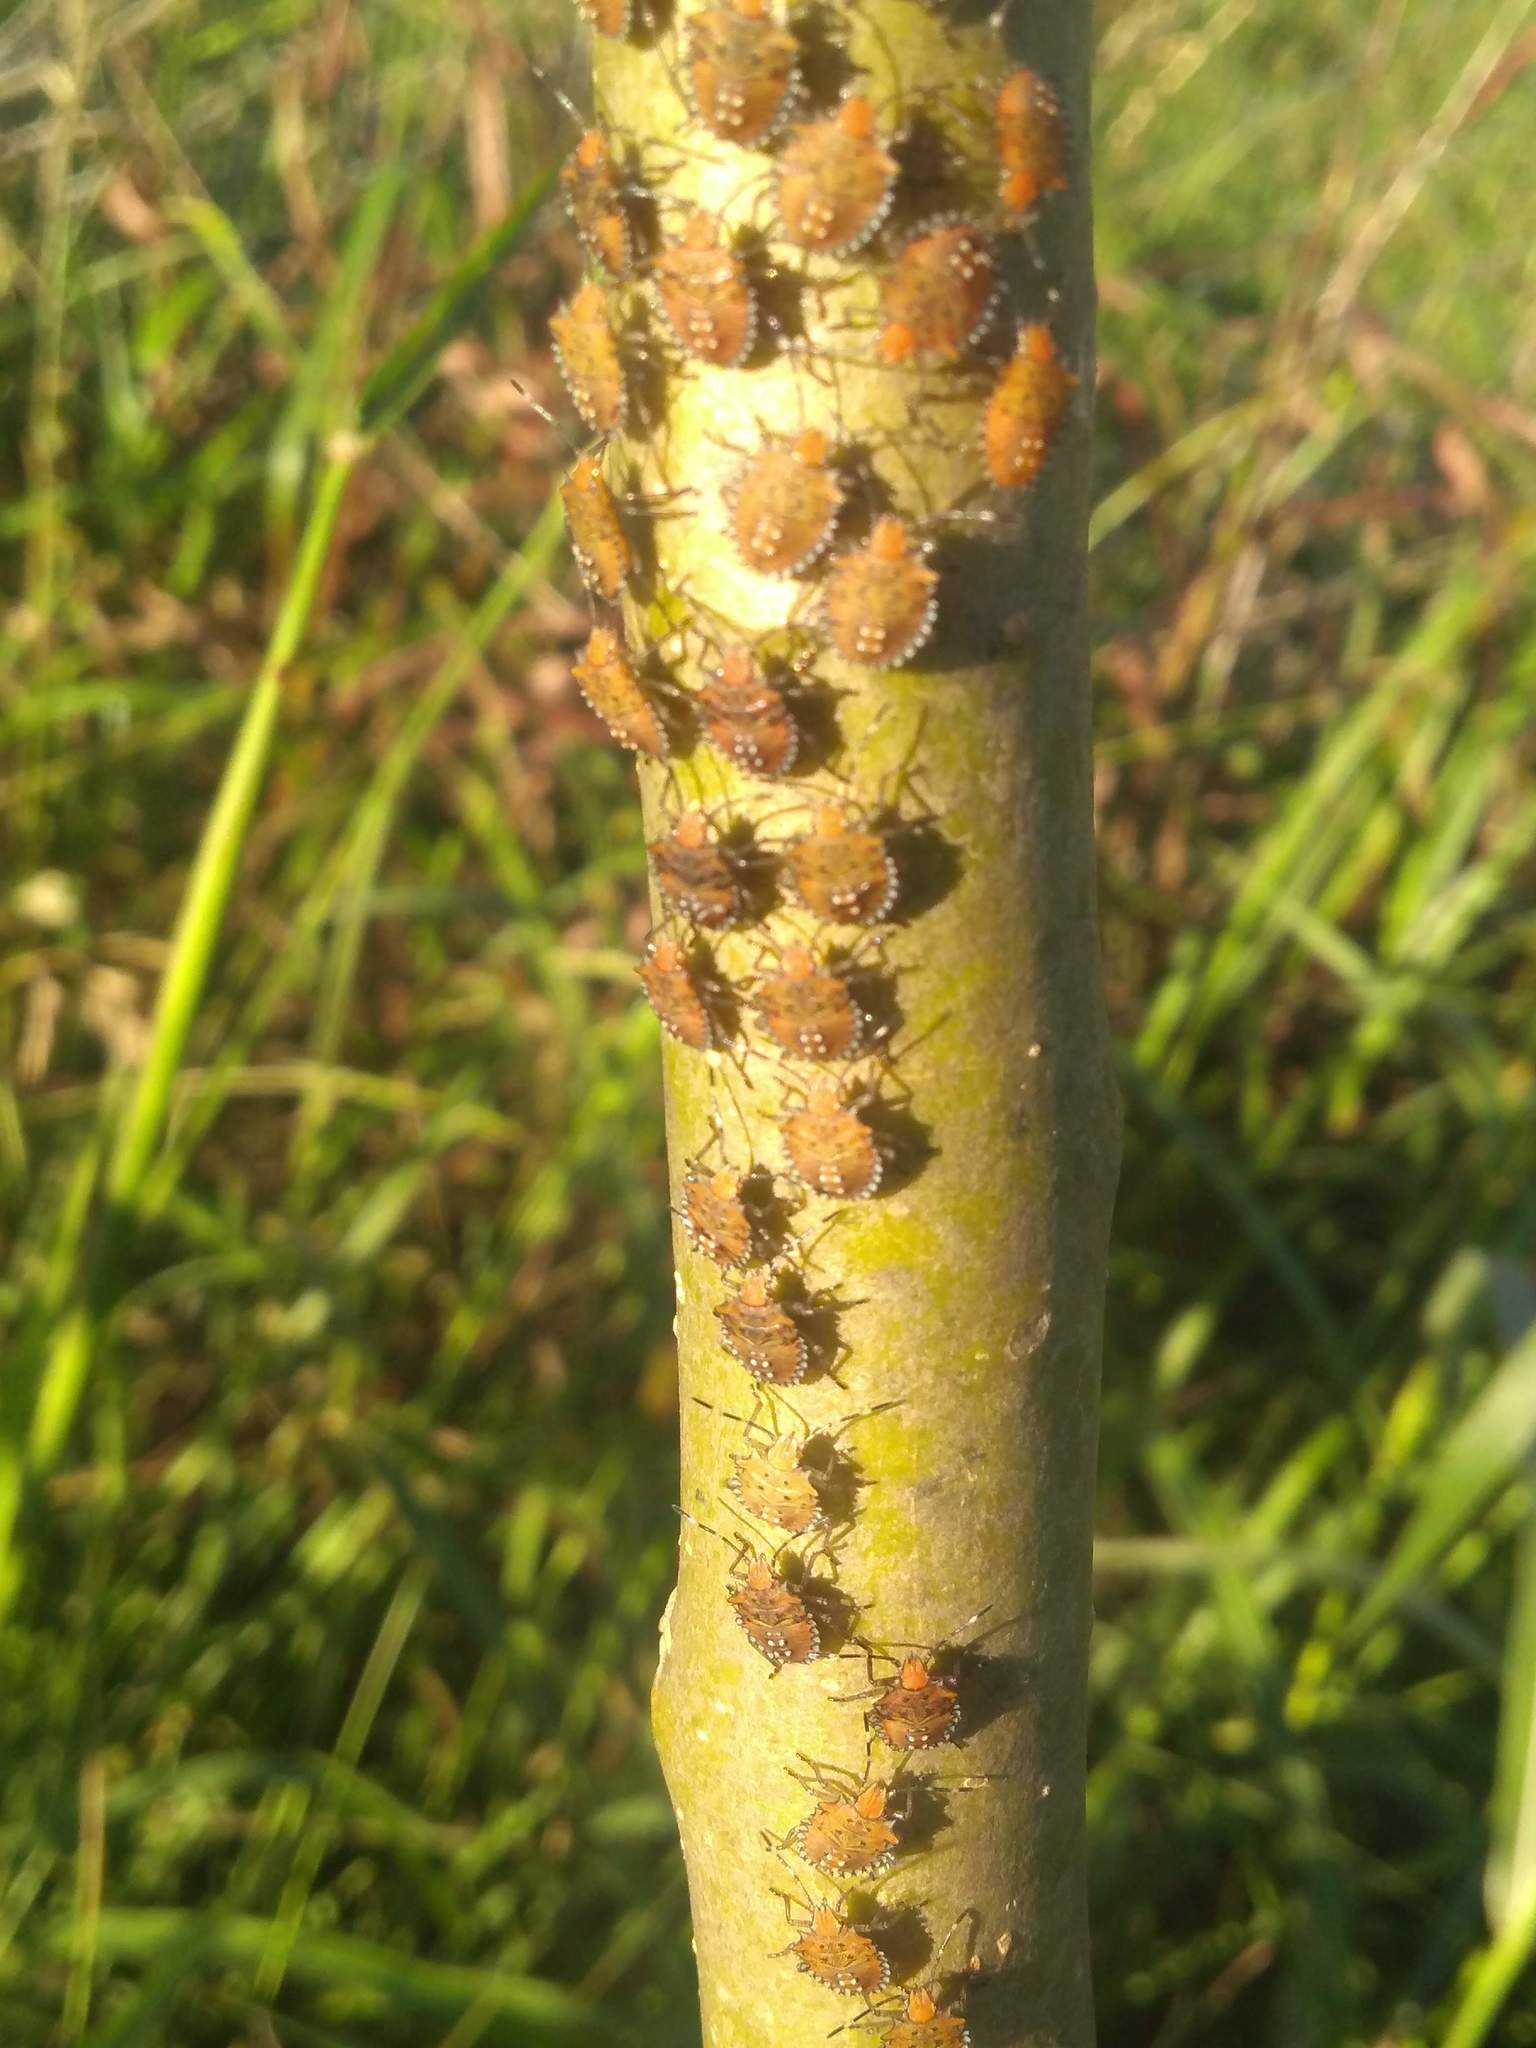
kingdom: Animalia
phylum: Arthropoda
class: Insecta
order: Hemiptera
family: Pentatomidae
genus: Arvelius
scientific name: Arvelius albopunctatus
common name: Tomato stink bug
